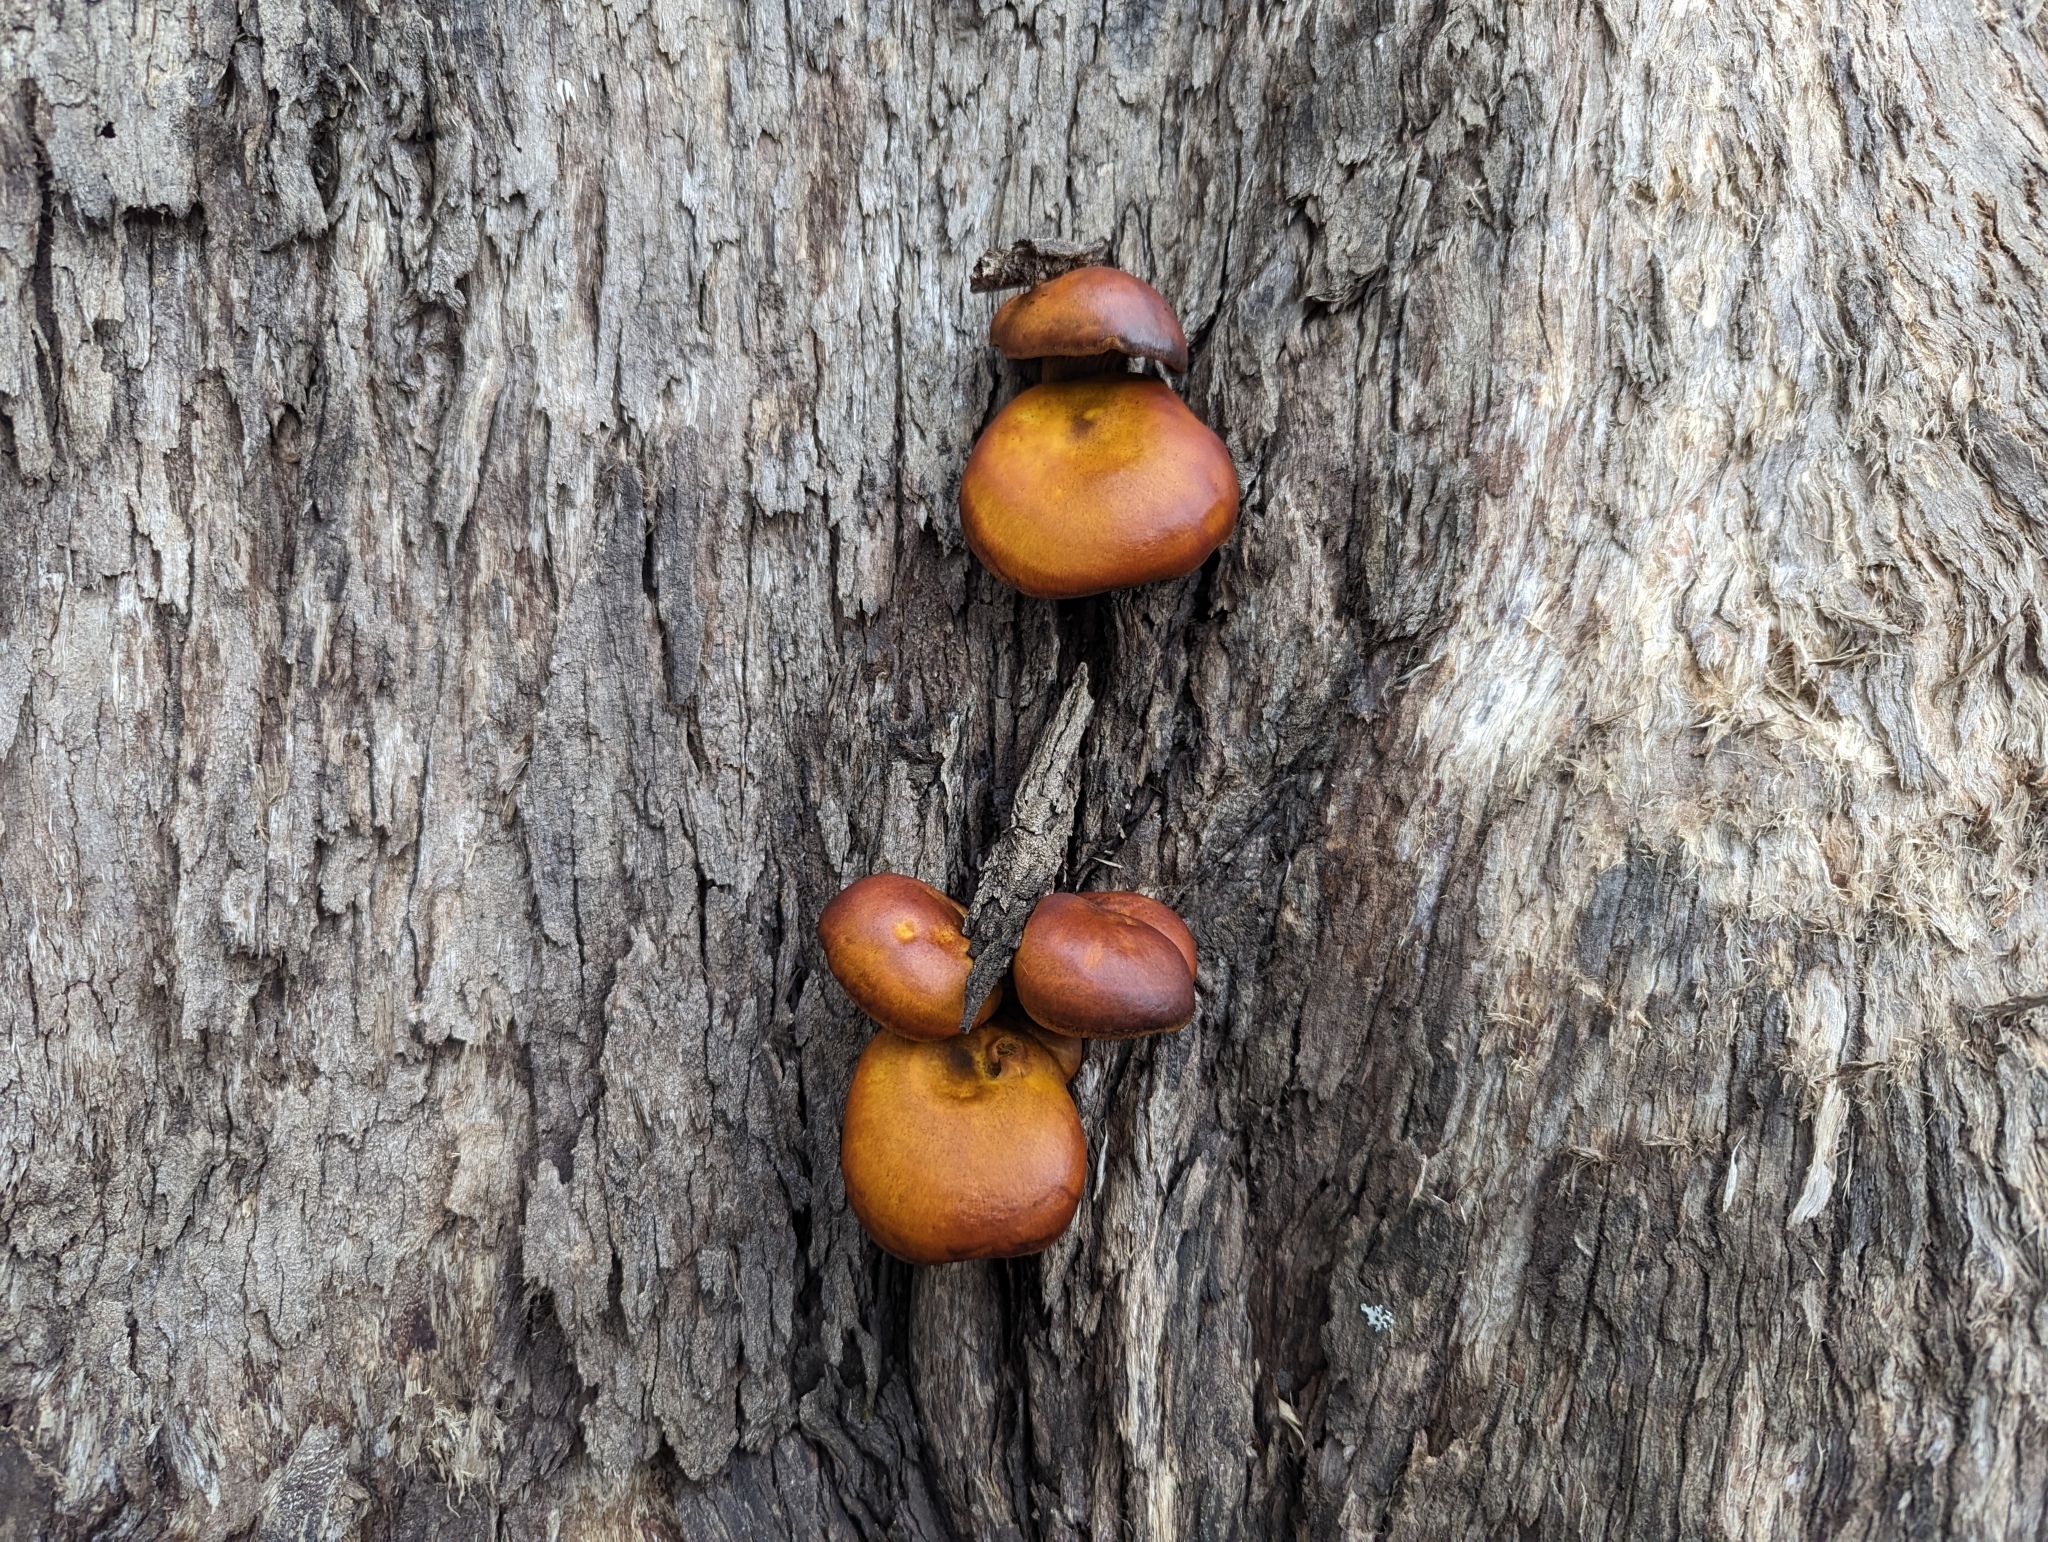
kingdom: Fungi
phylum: Basidiomycota
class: Agaricomycetes
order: Agaricales
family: Omphalotaceae
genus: Omphalotus
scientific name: Omphalotus olivascens
